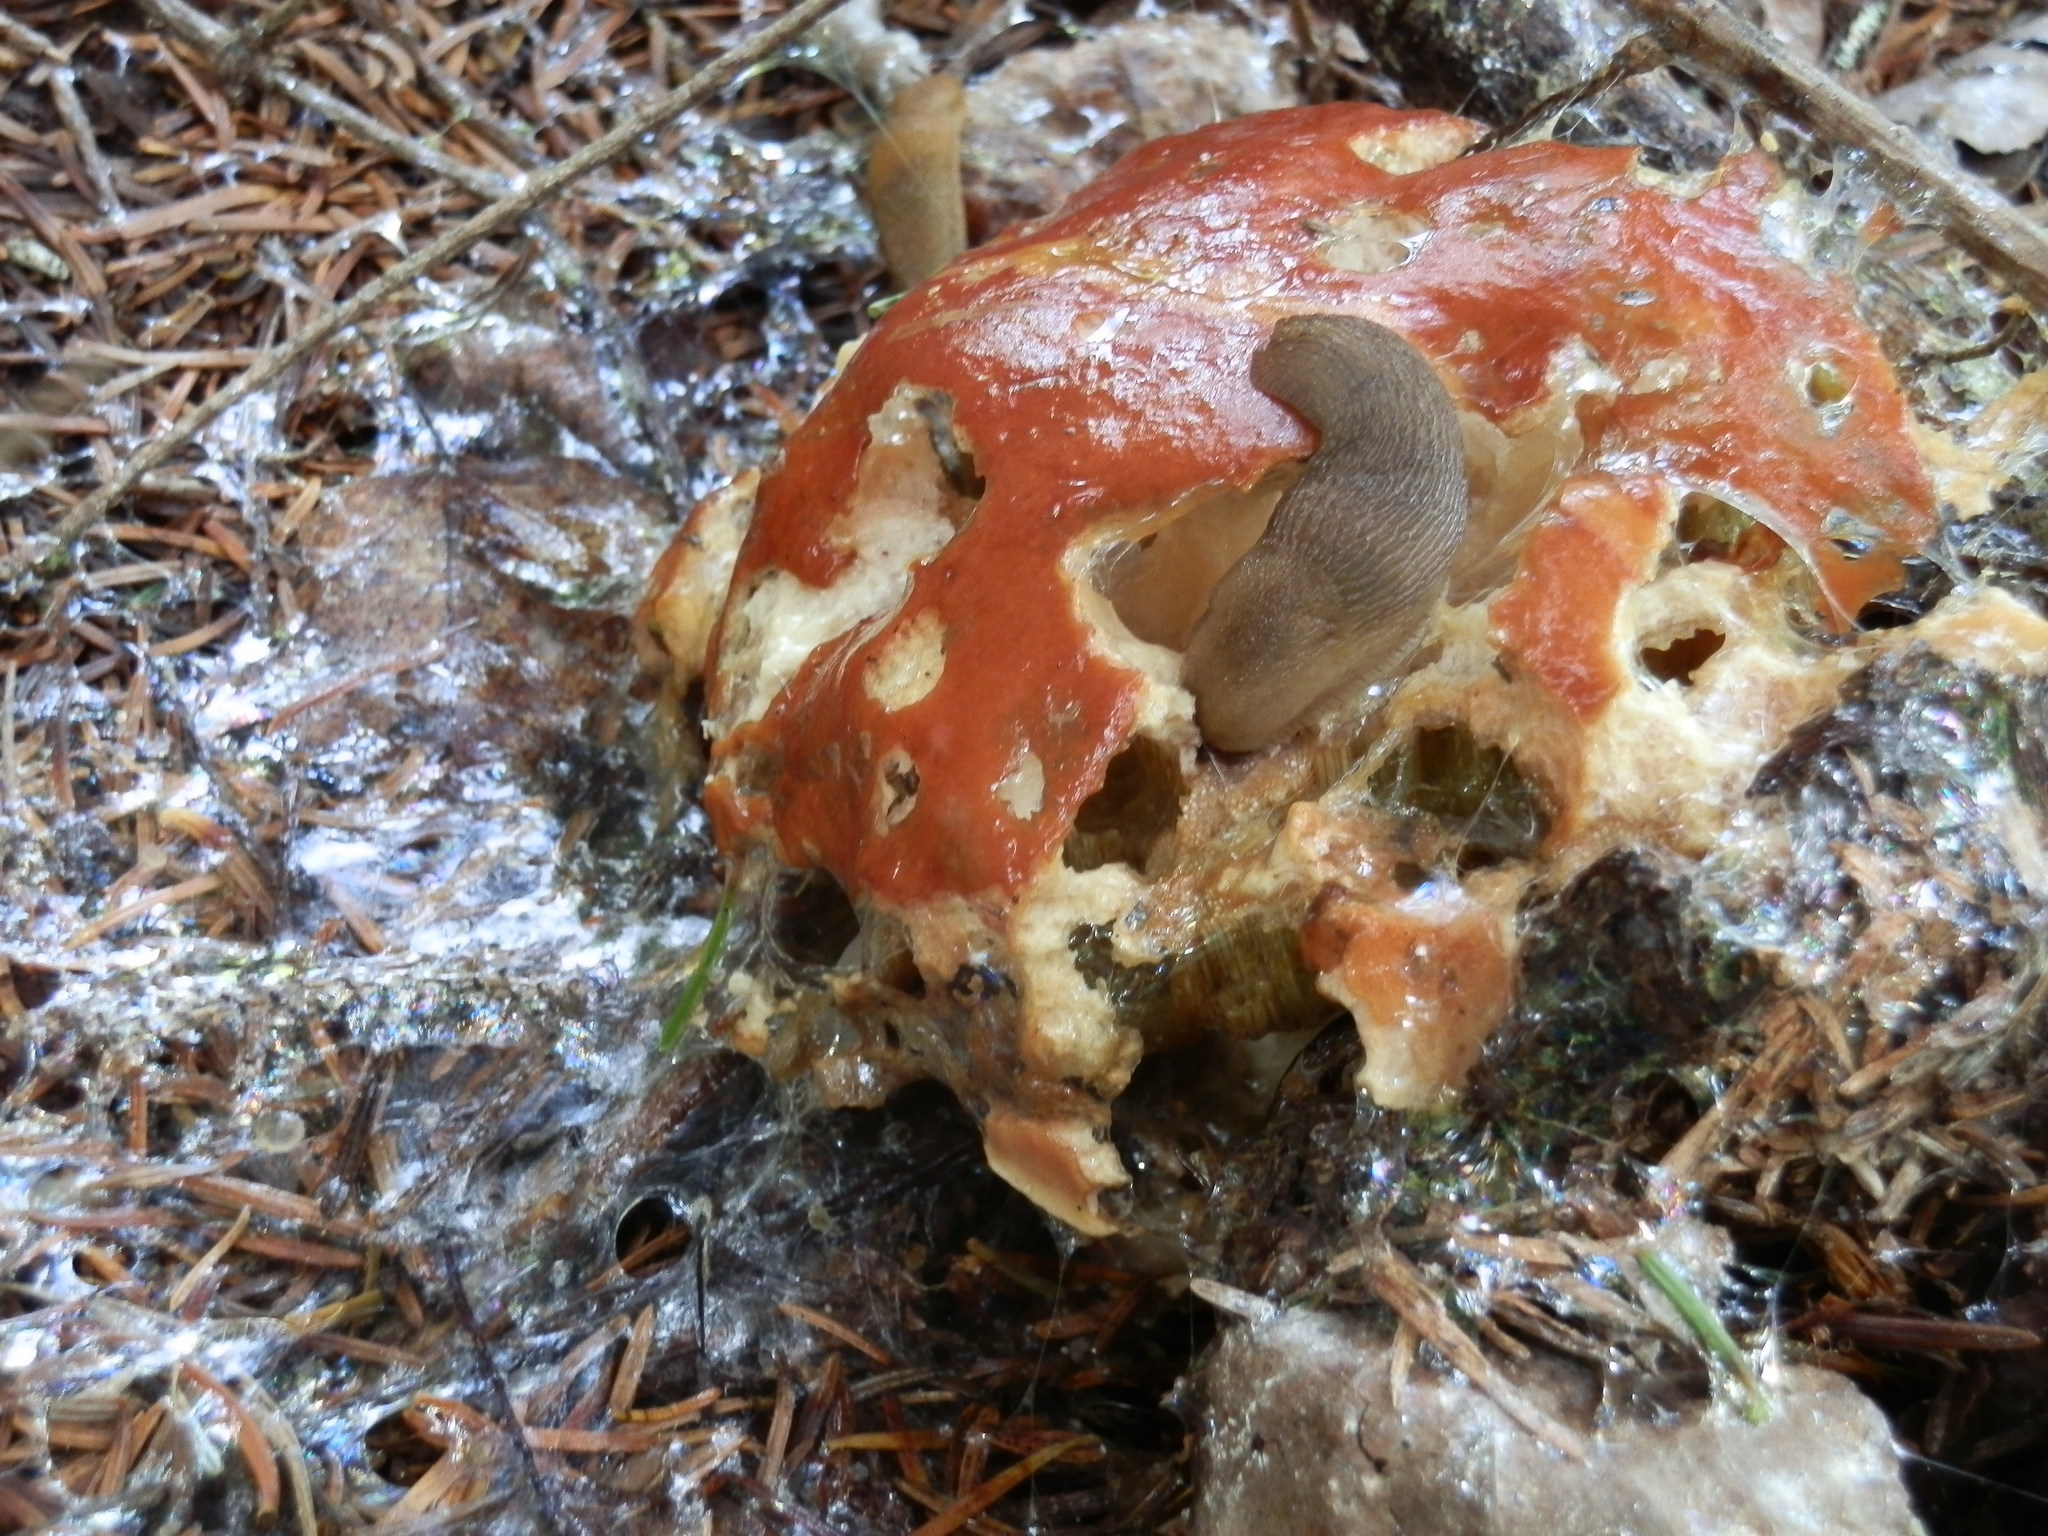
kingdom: Fungi
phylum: Basidiomycota
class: Agaricomycetes
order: Boletales
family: Boletaceae
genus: Boletus
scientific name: Boletus edulis
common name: Cep
